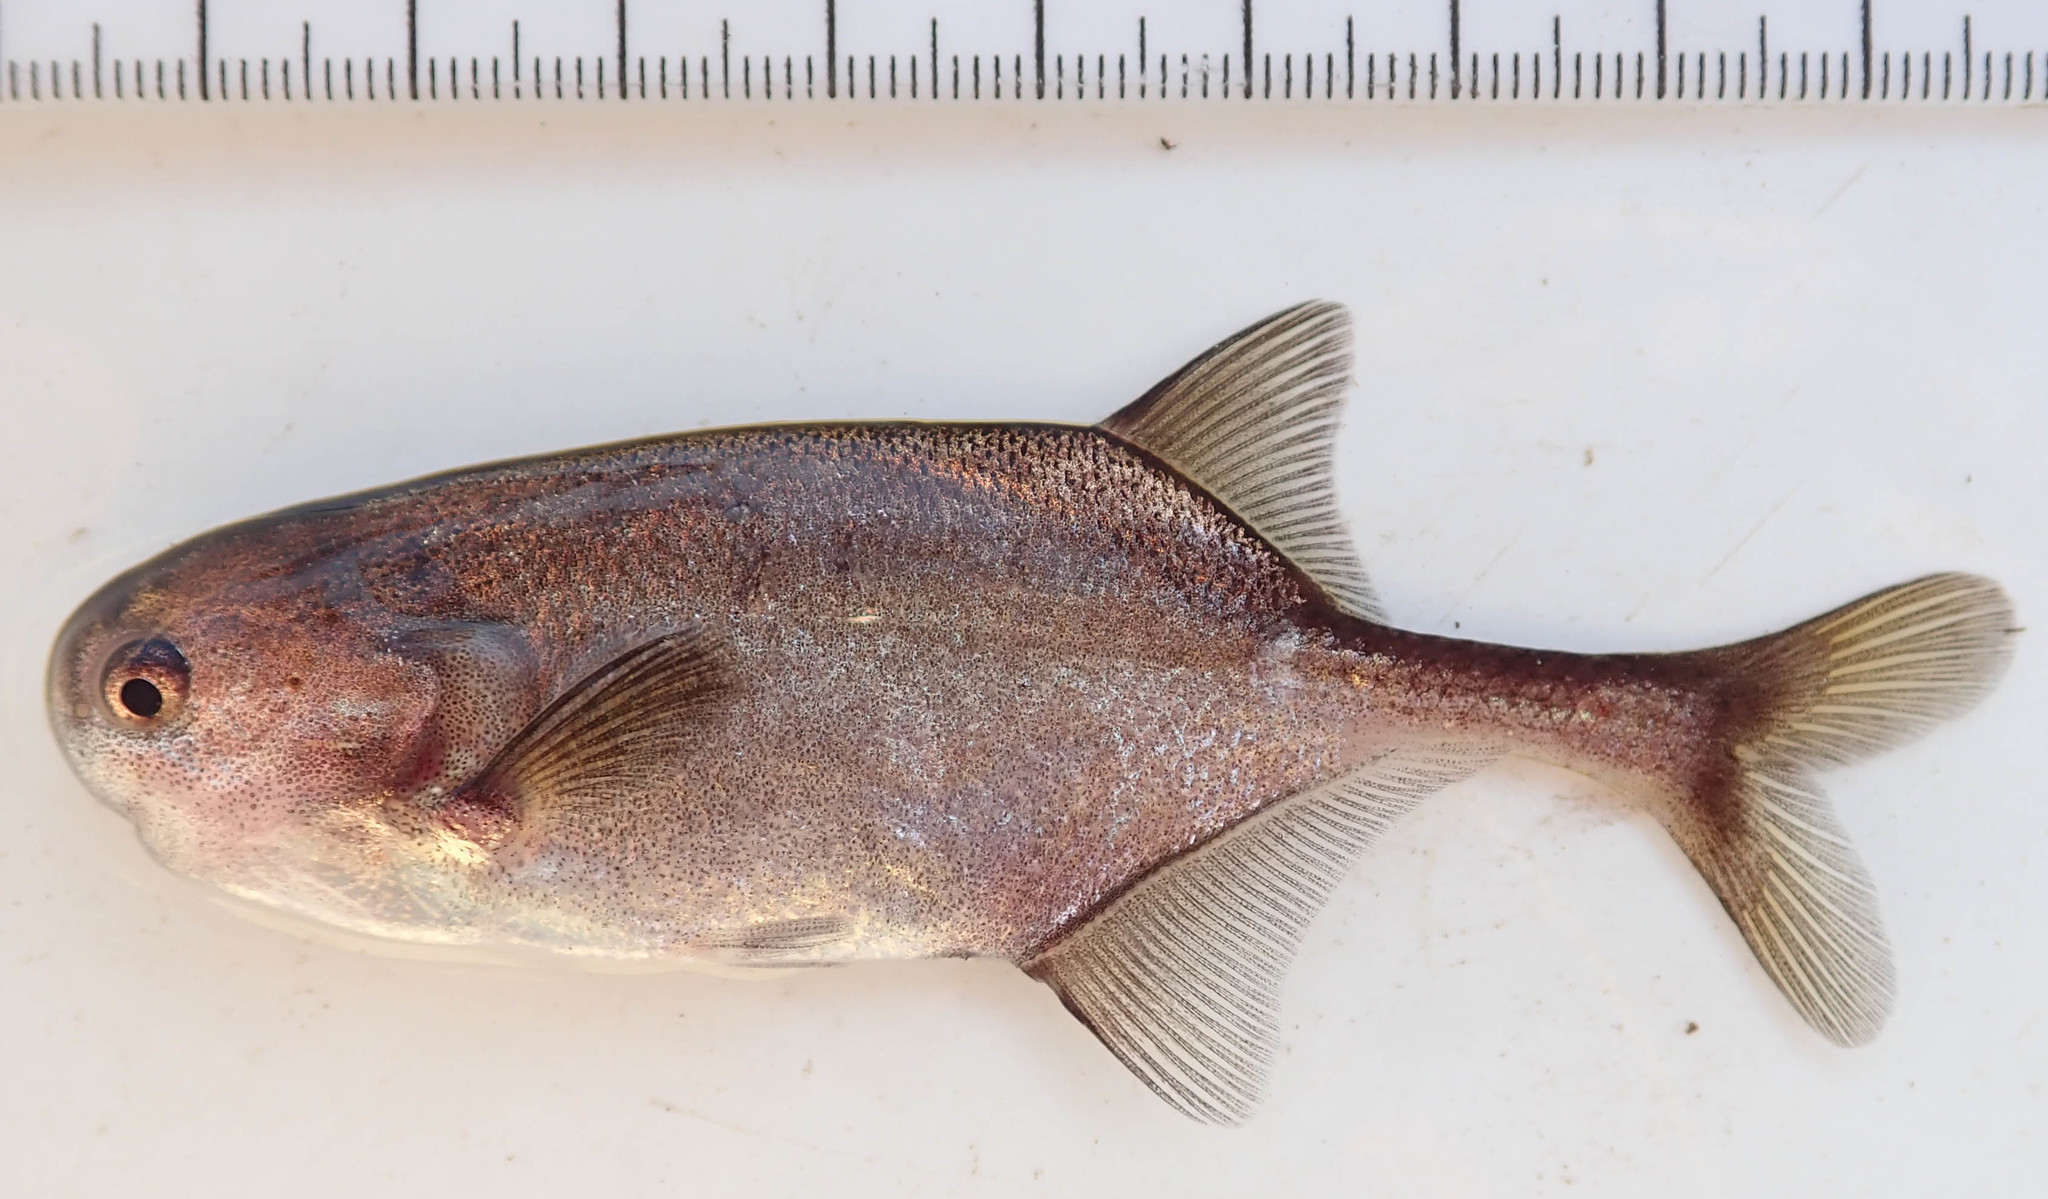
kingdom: Animalia
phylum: Chordata
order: Osteoglossiformes
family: Mormyridae
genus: Petrocephalus
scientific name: Petrocephalus okavangensis
